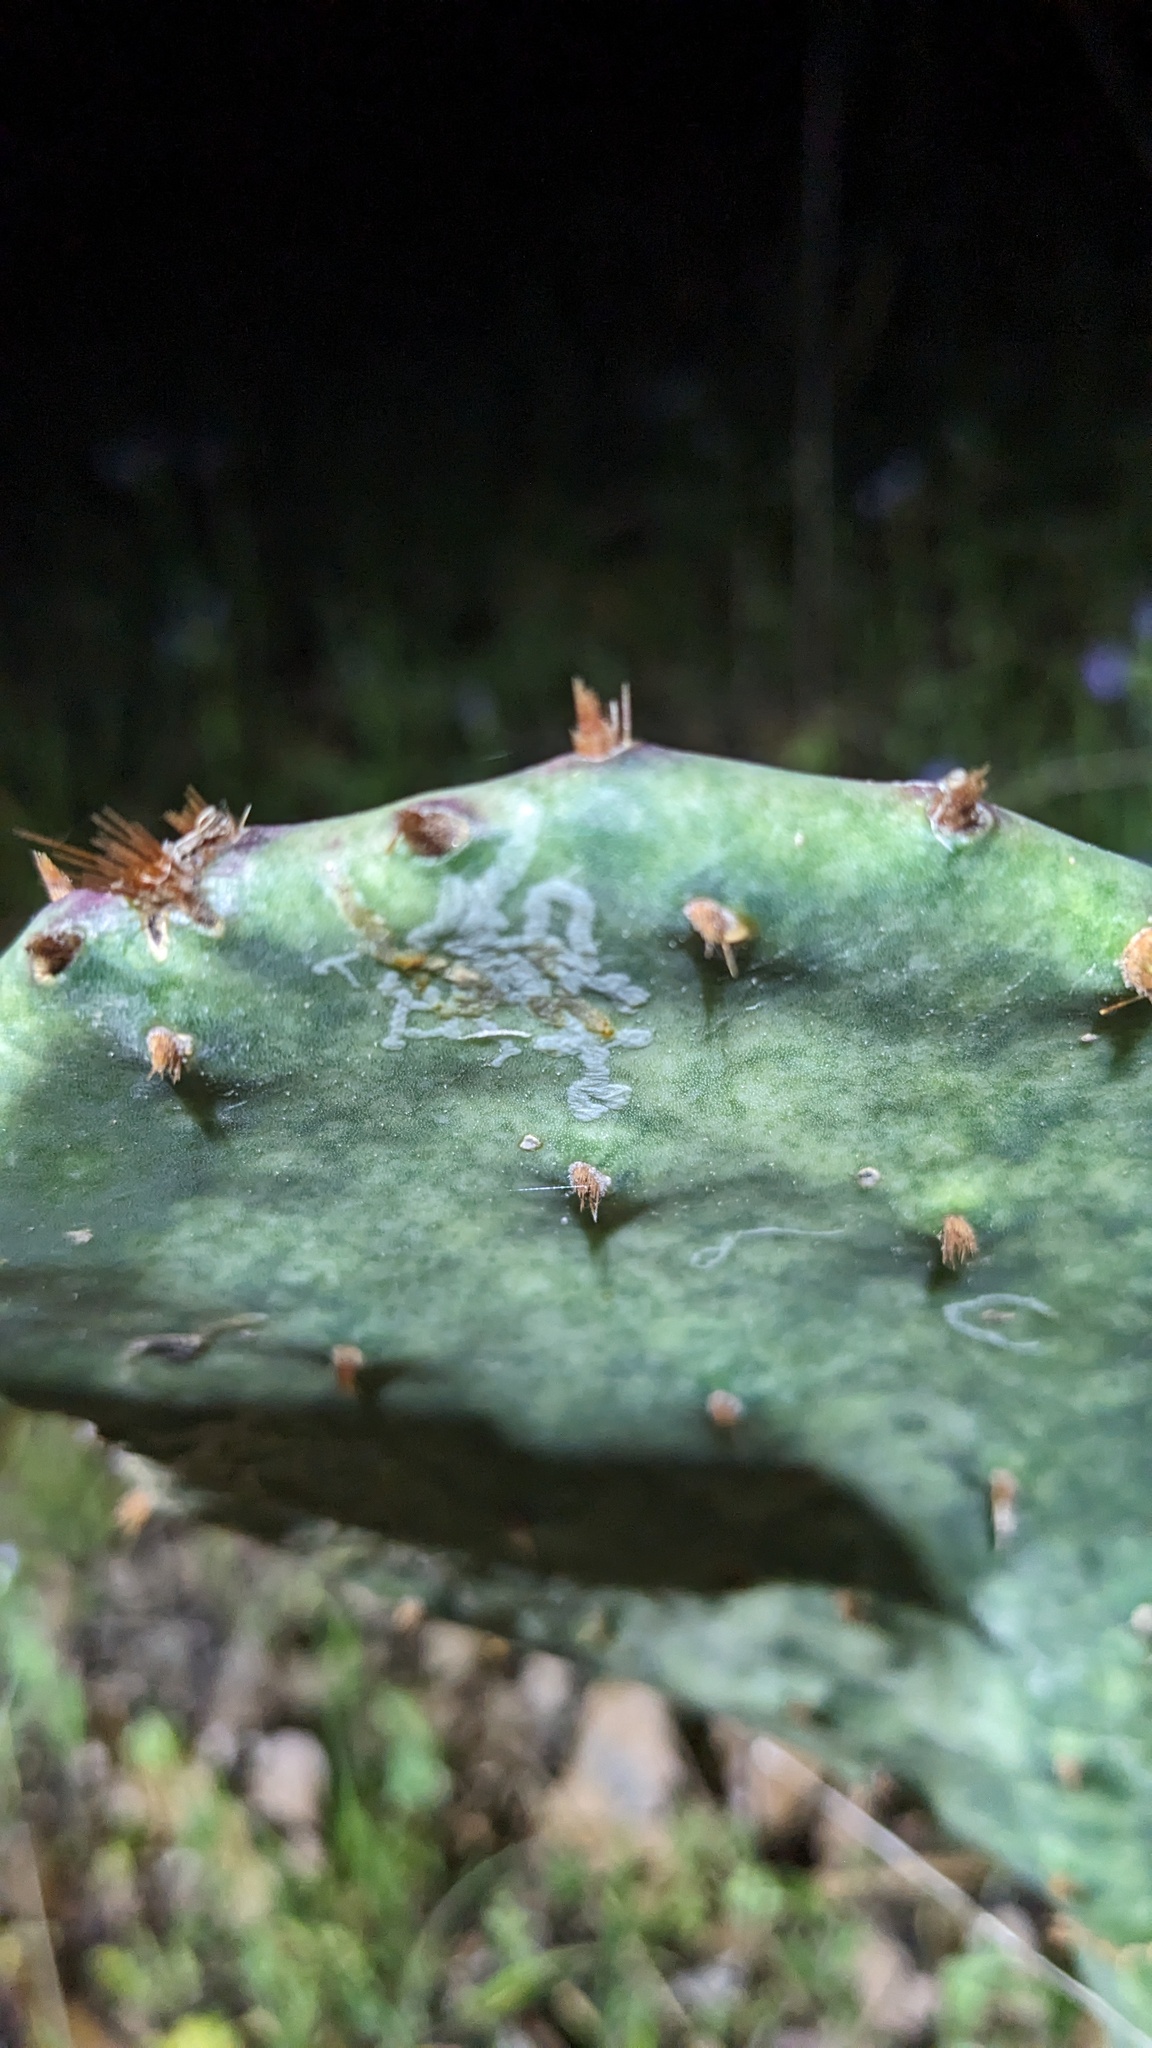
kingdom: Animalia
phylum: Arthropoda
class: Insecta
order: Lepidoptera
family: Gracillariidae
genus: Marmara
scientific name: Marmara opuntiella
